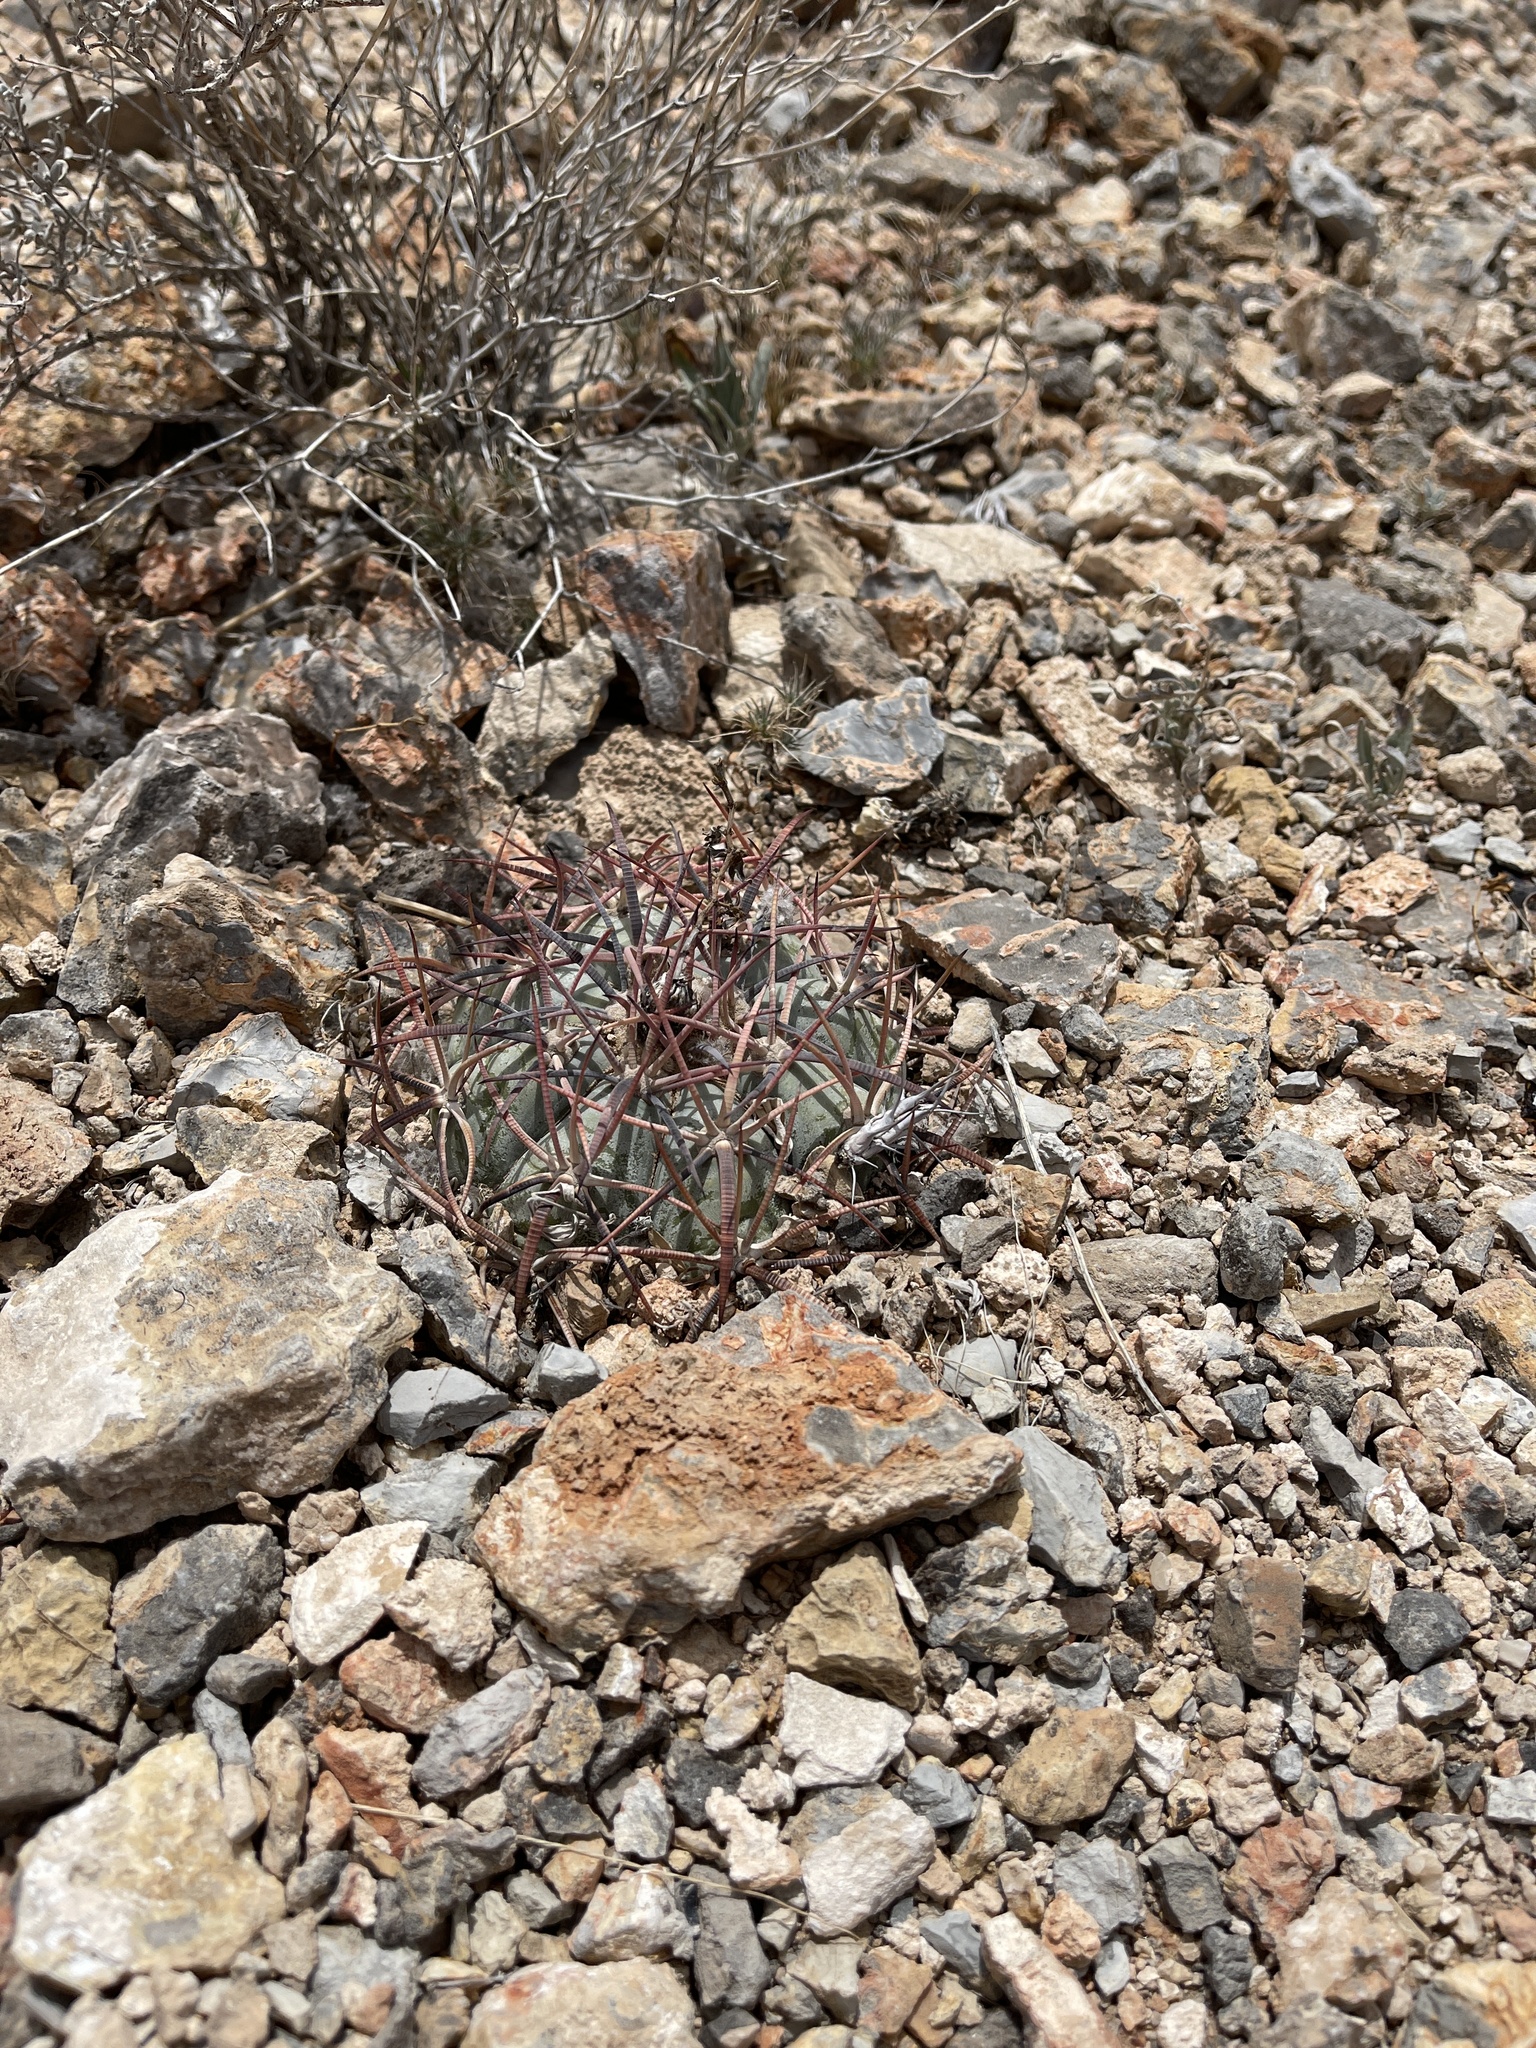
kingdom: Plantae
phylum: Tracheophyta
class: Magnoliopsida
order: Caryophyllales
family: Cactaceae
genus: Echinocactus
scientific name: Echinocactus horizonthalonius
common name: Devilshead
